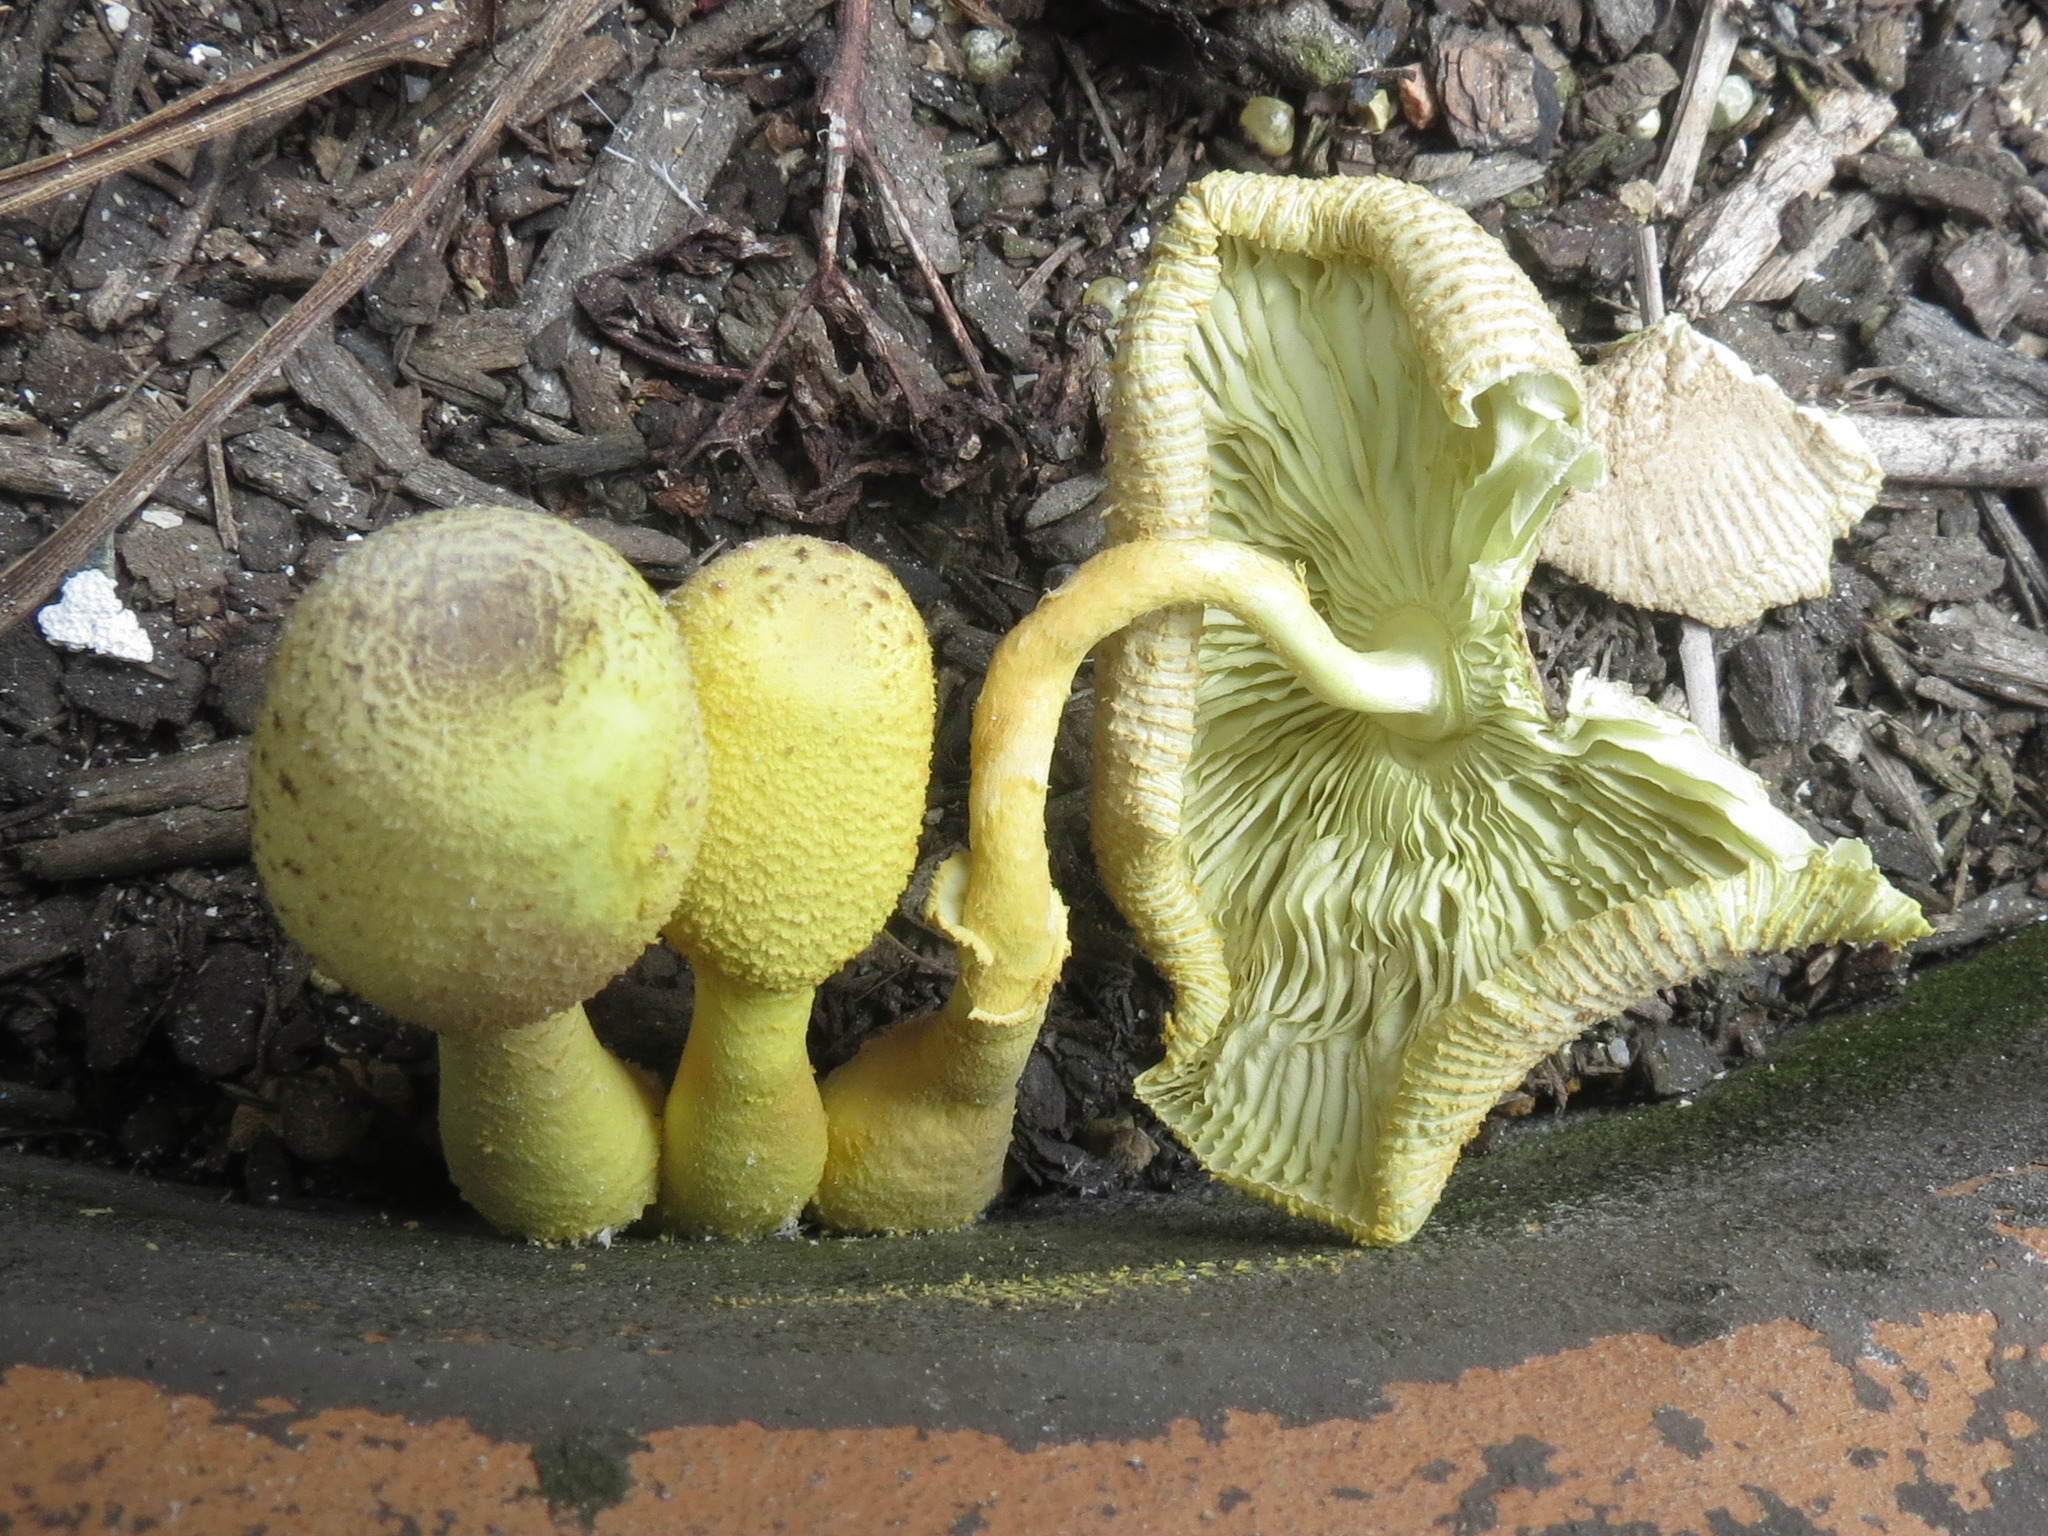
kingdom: Fungi
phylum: Basidiomycota
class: Agaricomycetes
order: Agaricales
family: Agaricaceae
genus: Leucocoprinus
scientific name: Leucocoprinus birnbaumii
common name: Plantpot dapperling
